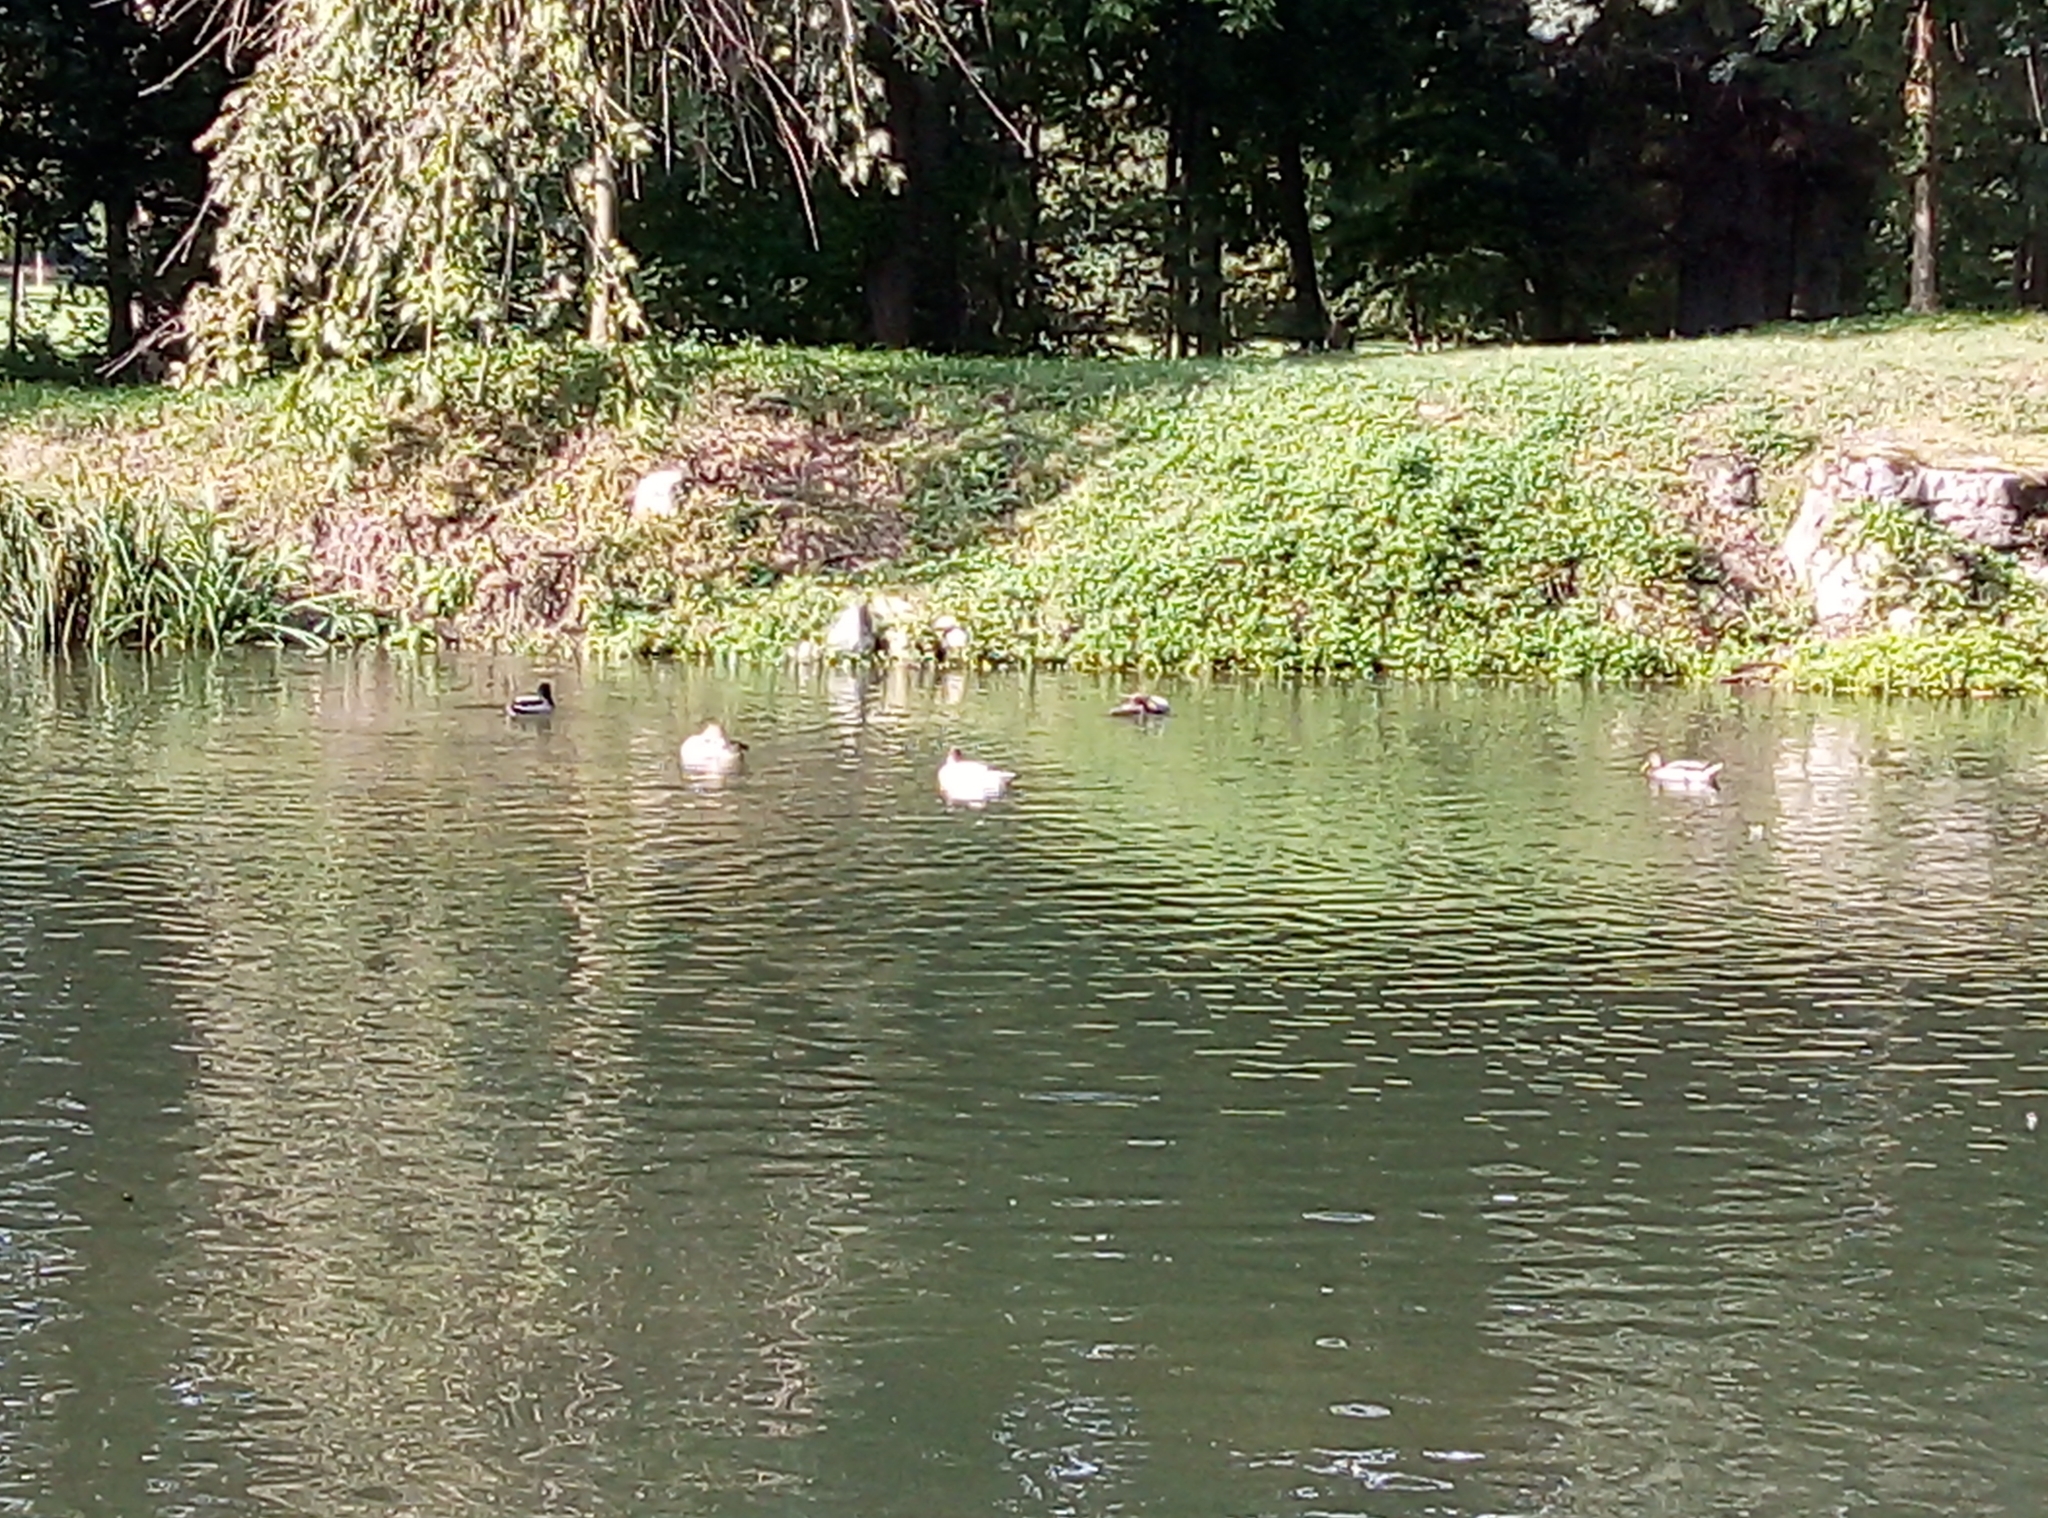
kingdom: Animalia
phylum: Chordata
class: Aves
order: Anseriformes
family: Anatidae
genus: Mergus
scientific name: Mergus merganser
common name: Common merganser
